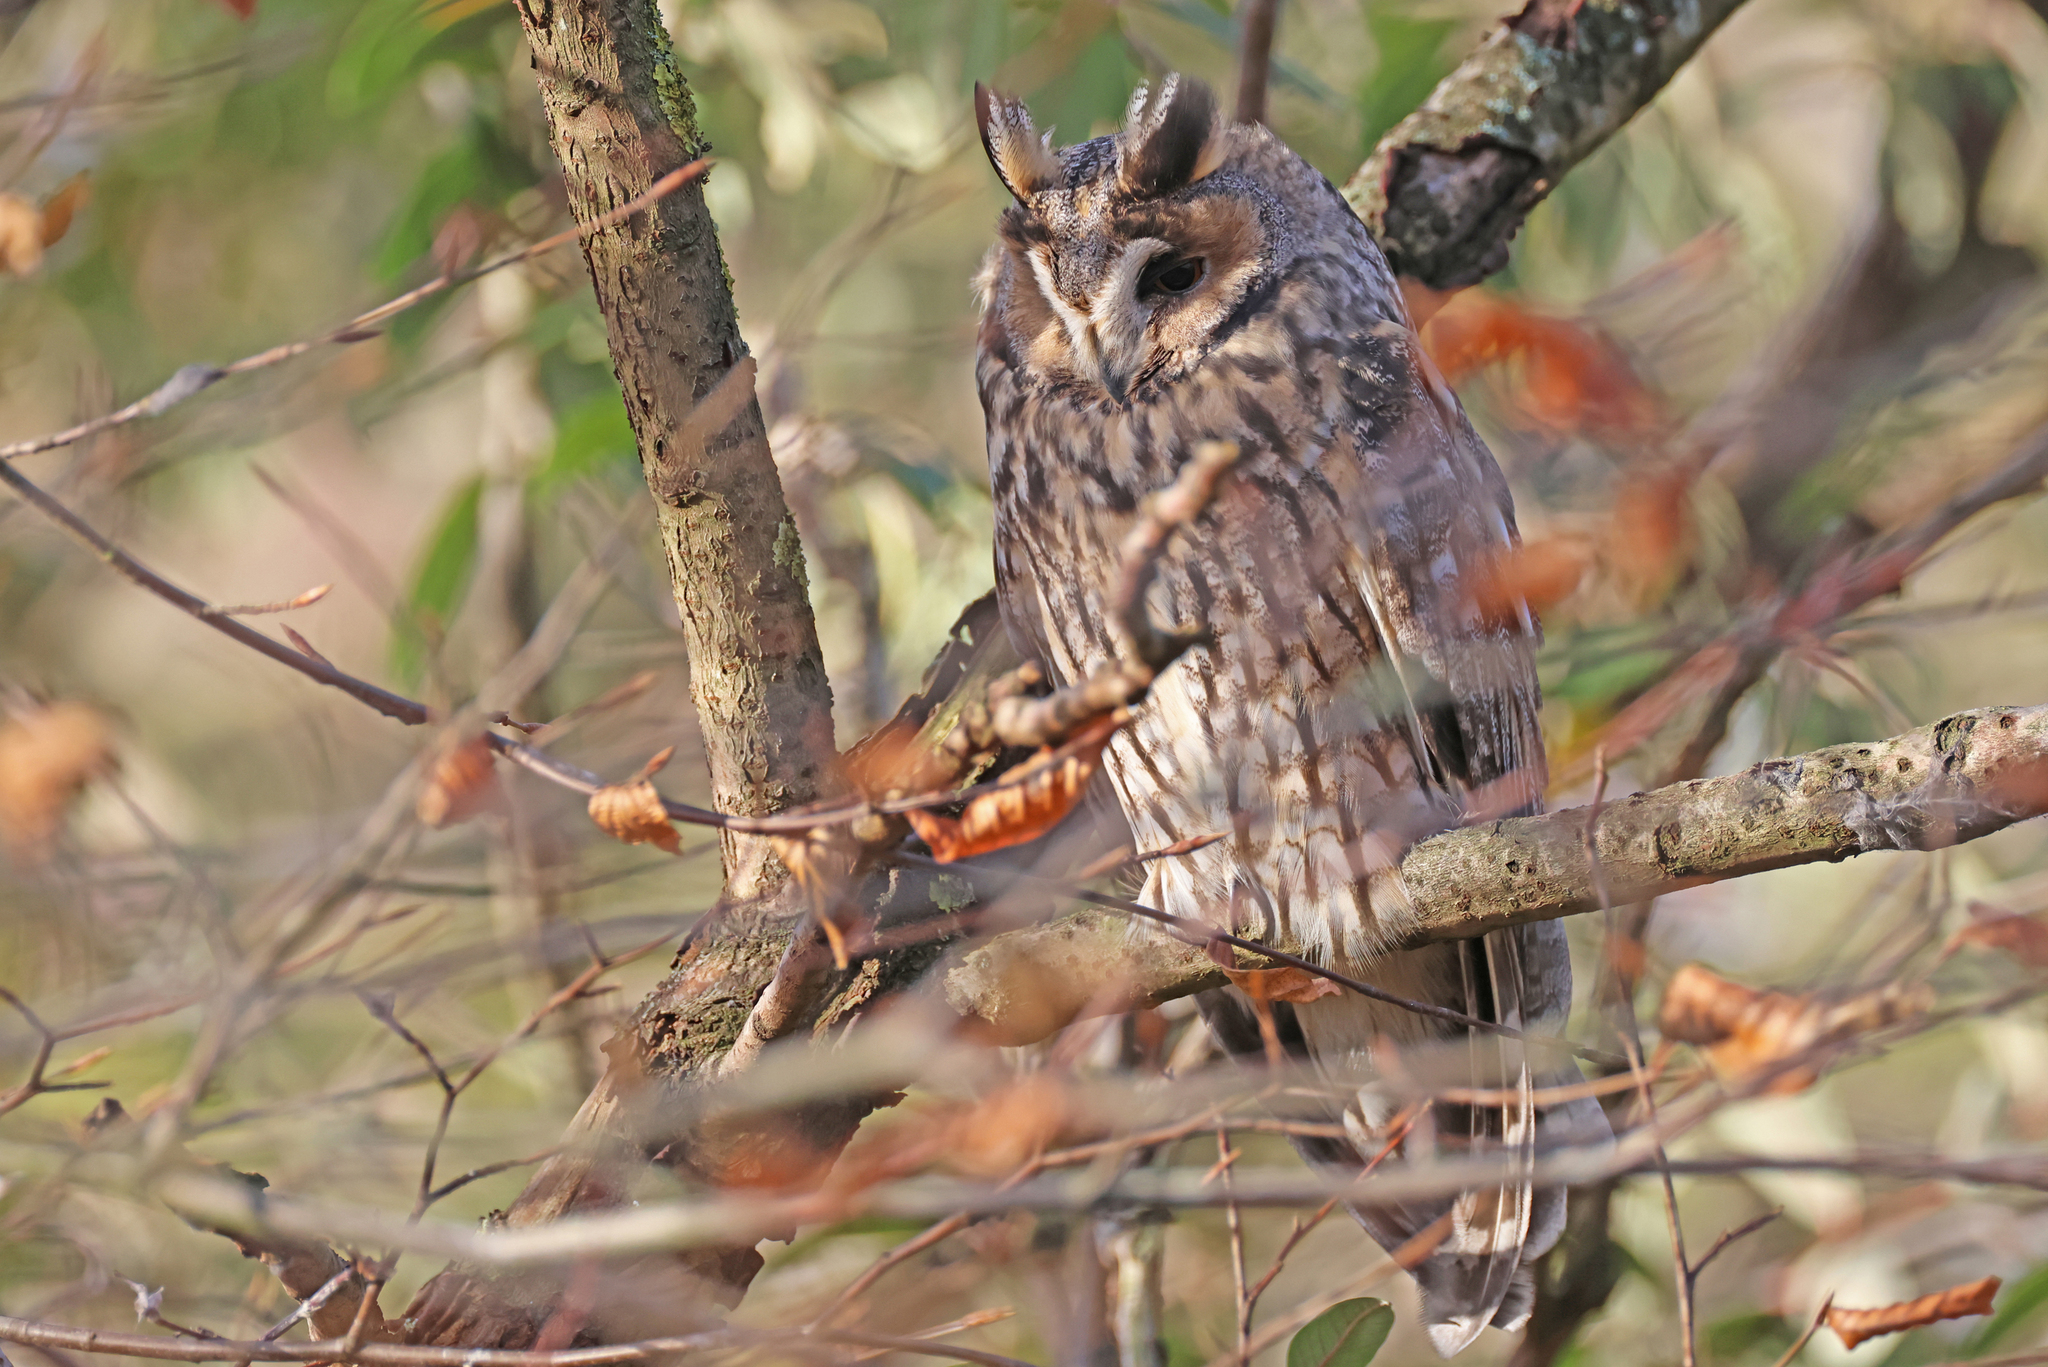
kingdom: Animalia
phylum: Chordata
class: Aves
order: Strigiformes
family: Strigidae
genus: Asio
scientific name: Asio otus
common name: Long-eared owl
